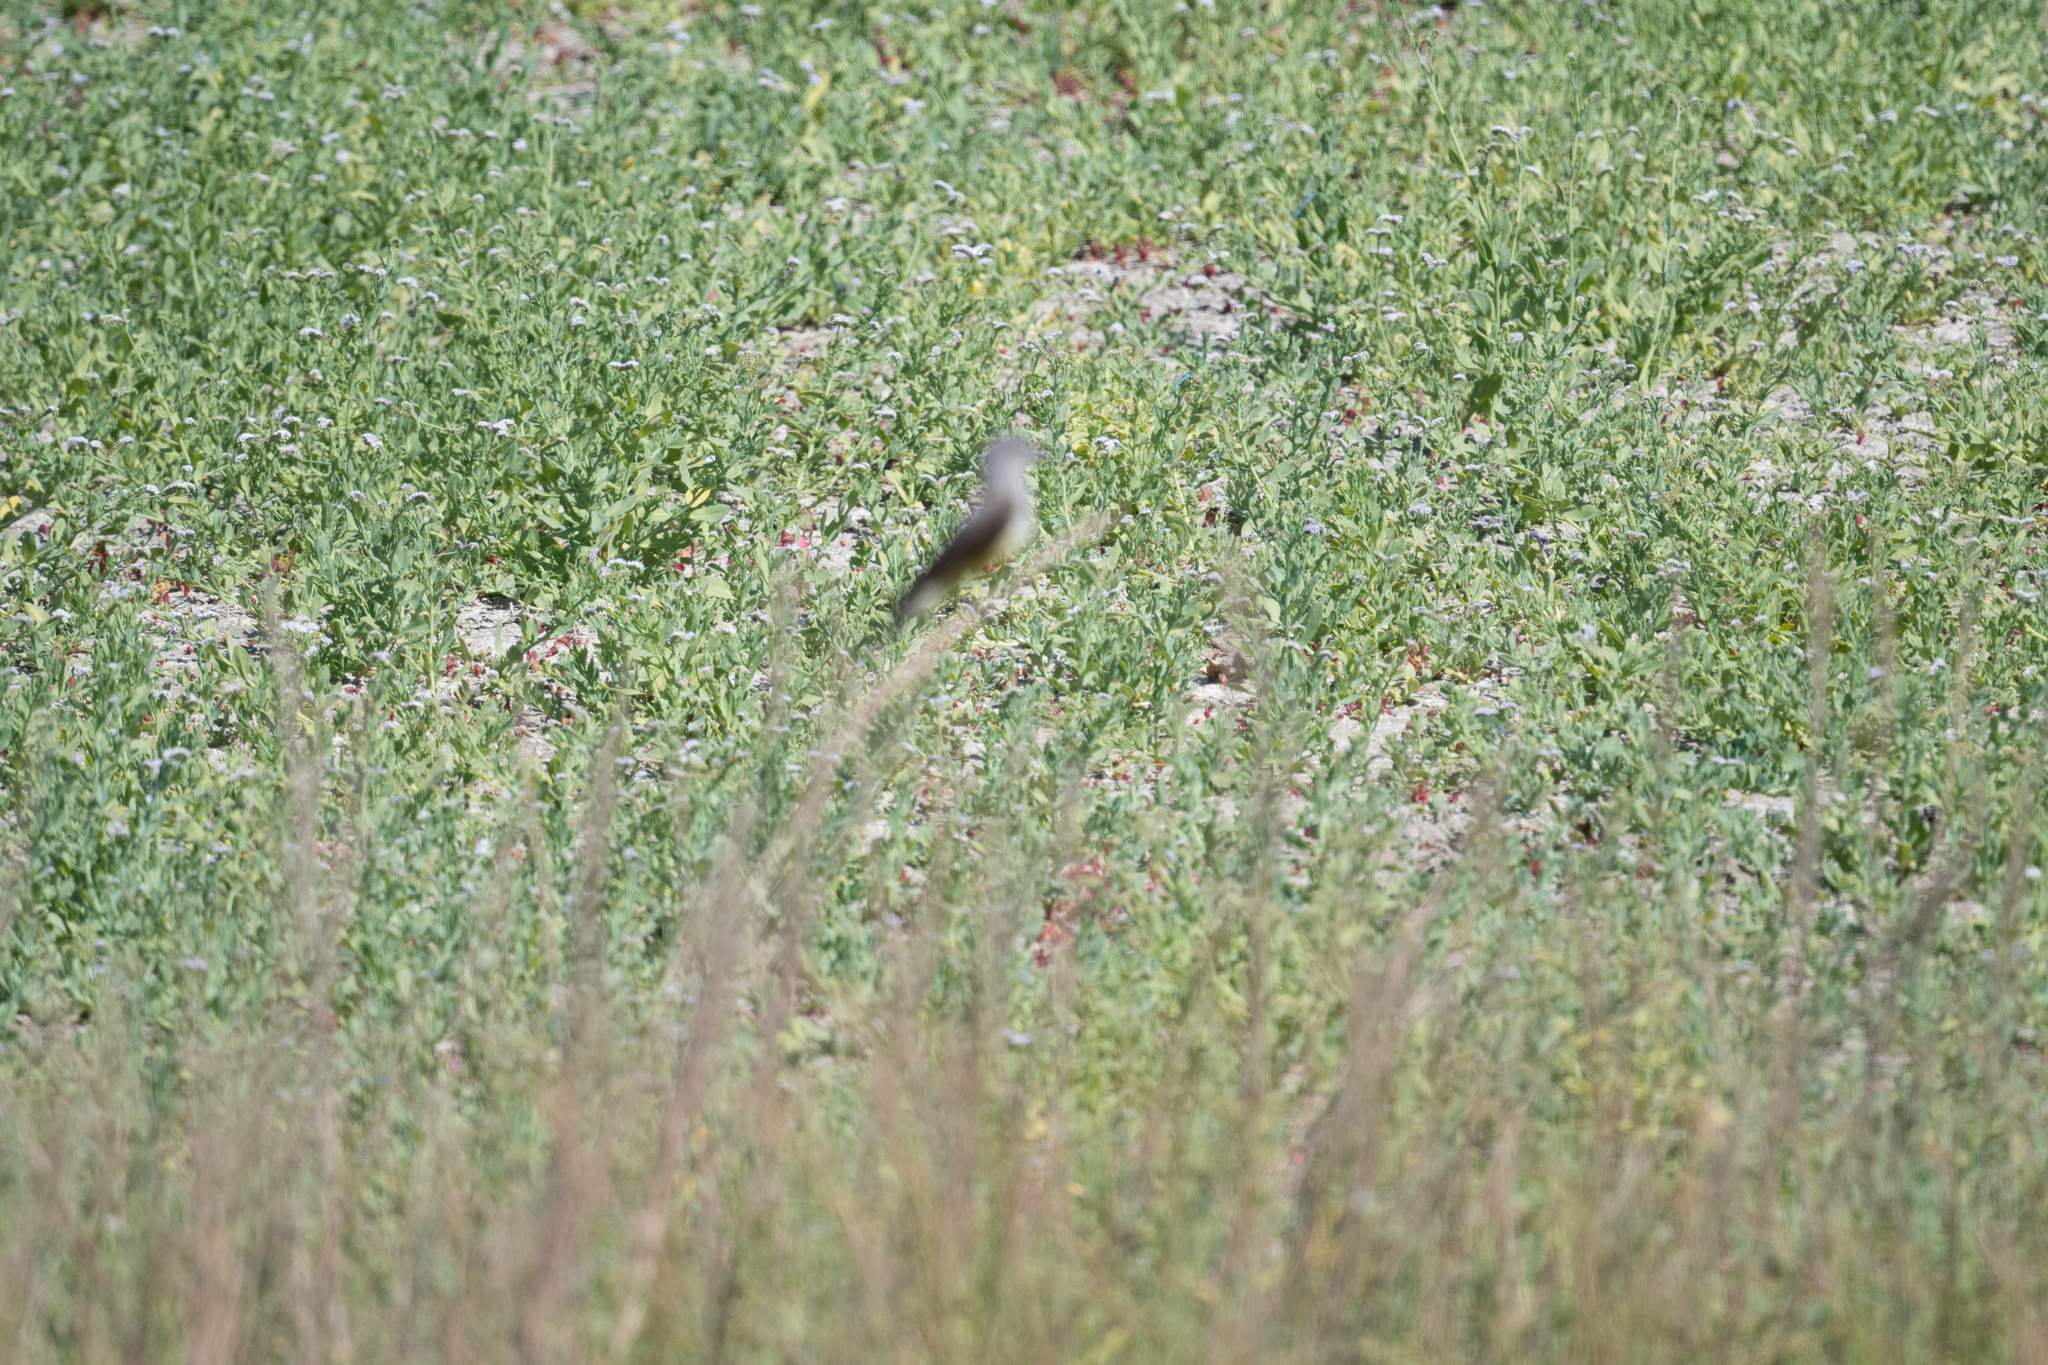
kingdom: Animalia
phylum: Chordata
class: Aves
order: Passeriformes
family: Tyrannidae
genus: Tyrannus
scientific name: Tyrannus verticalis
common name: Western kingbird
